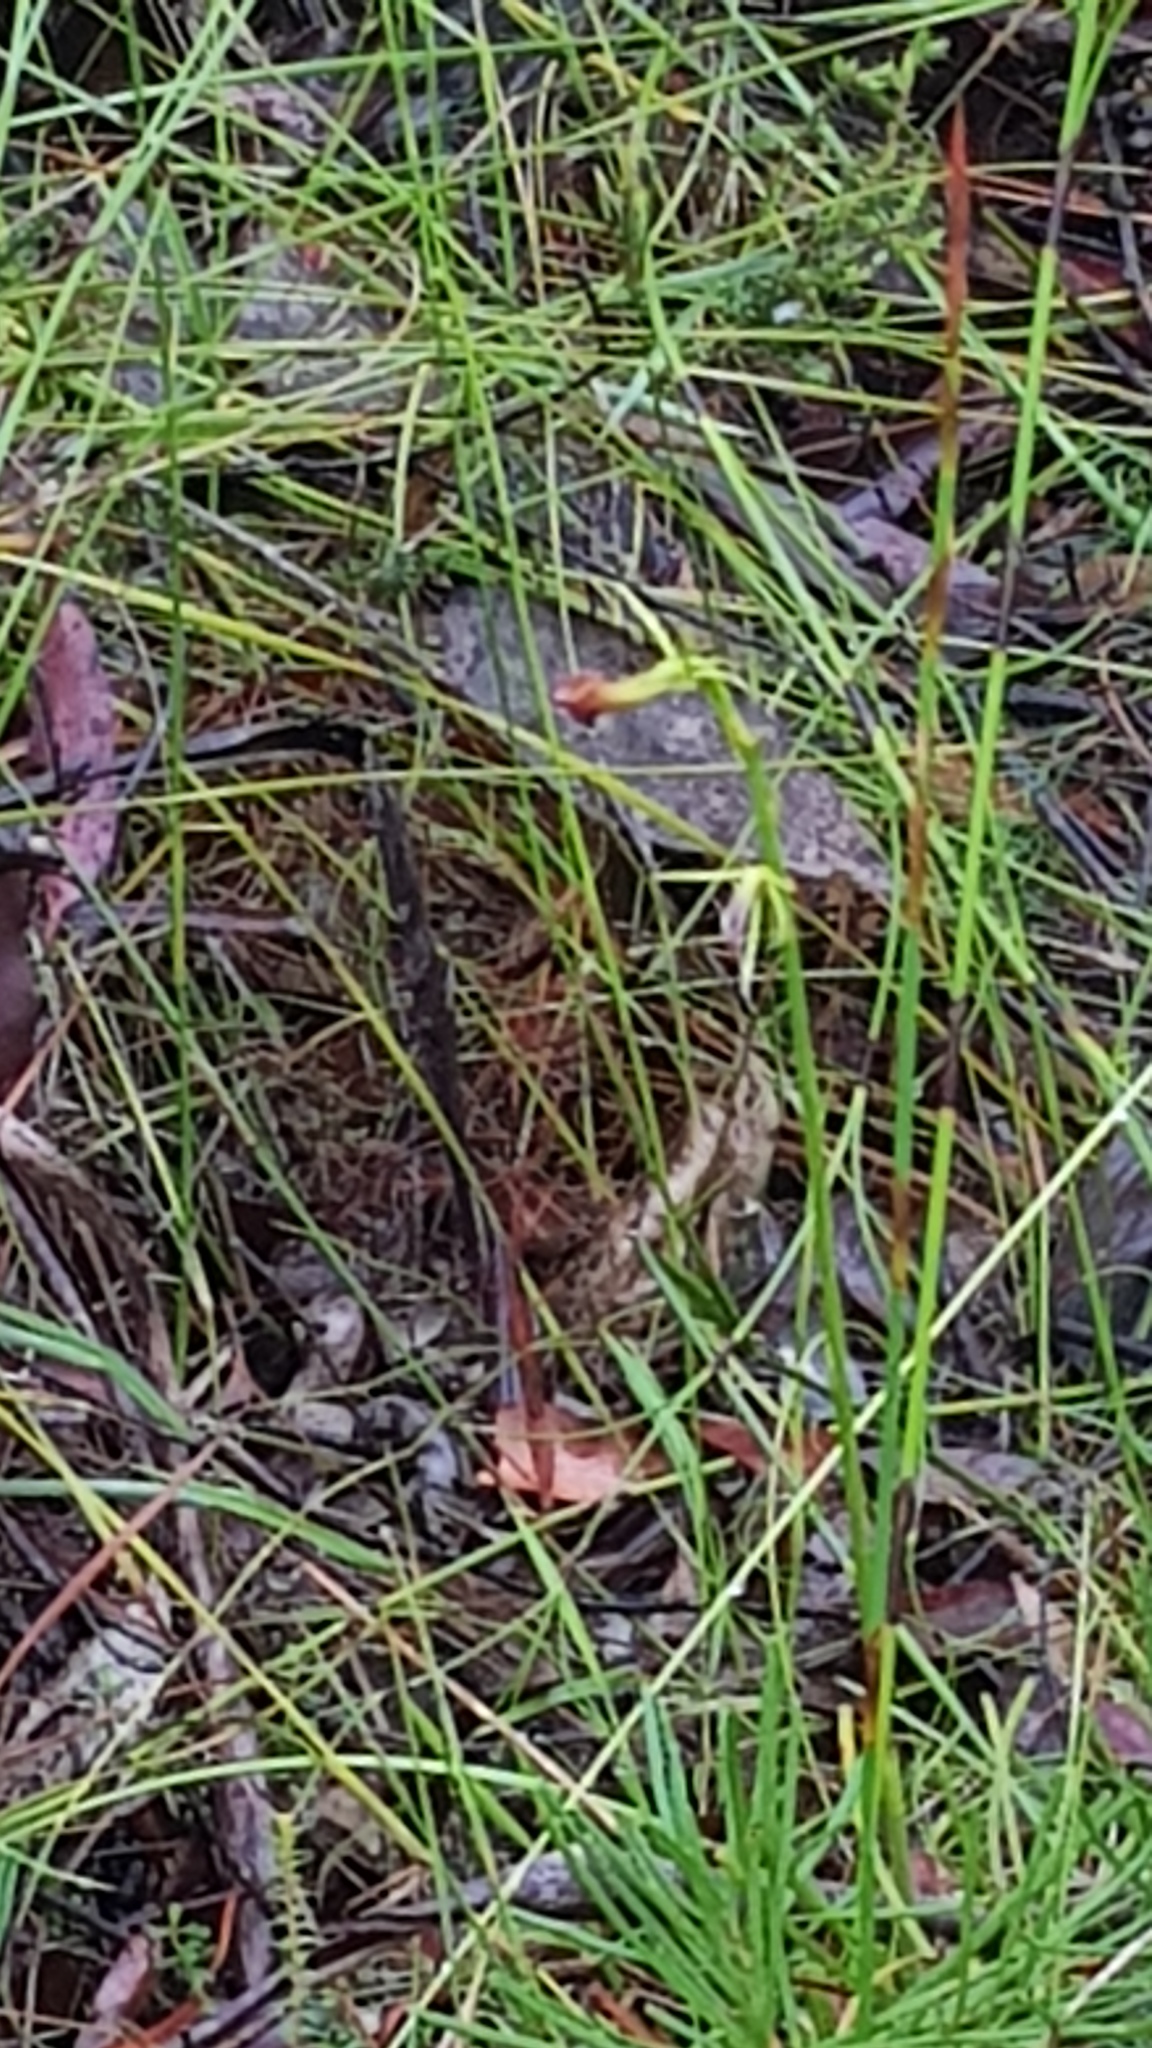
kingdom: Plantae
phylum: Tracheophyta
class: Liliopsida
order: Asparagales
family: Orchidaceae
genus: Cryptostylis
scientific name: Cryptostylis subulata
